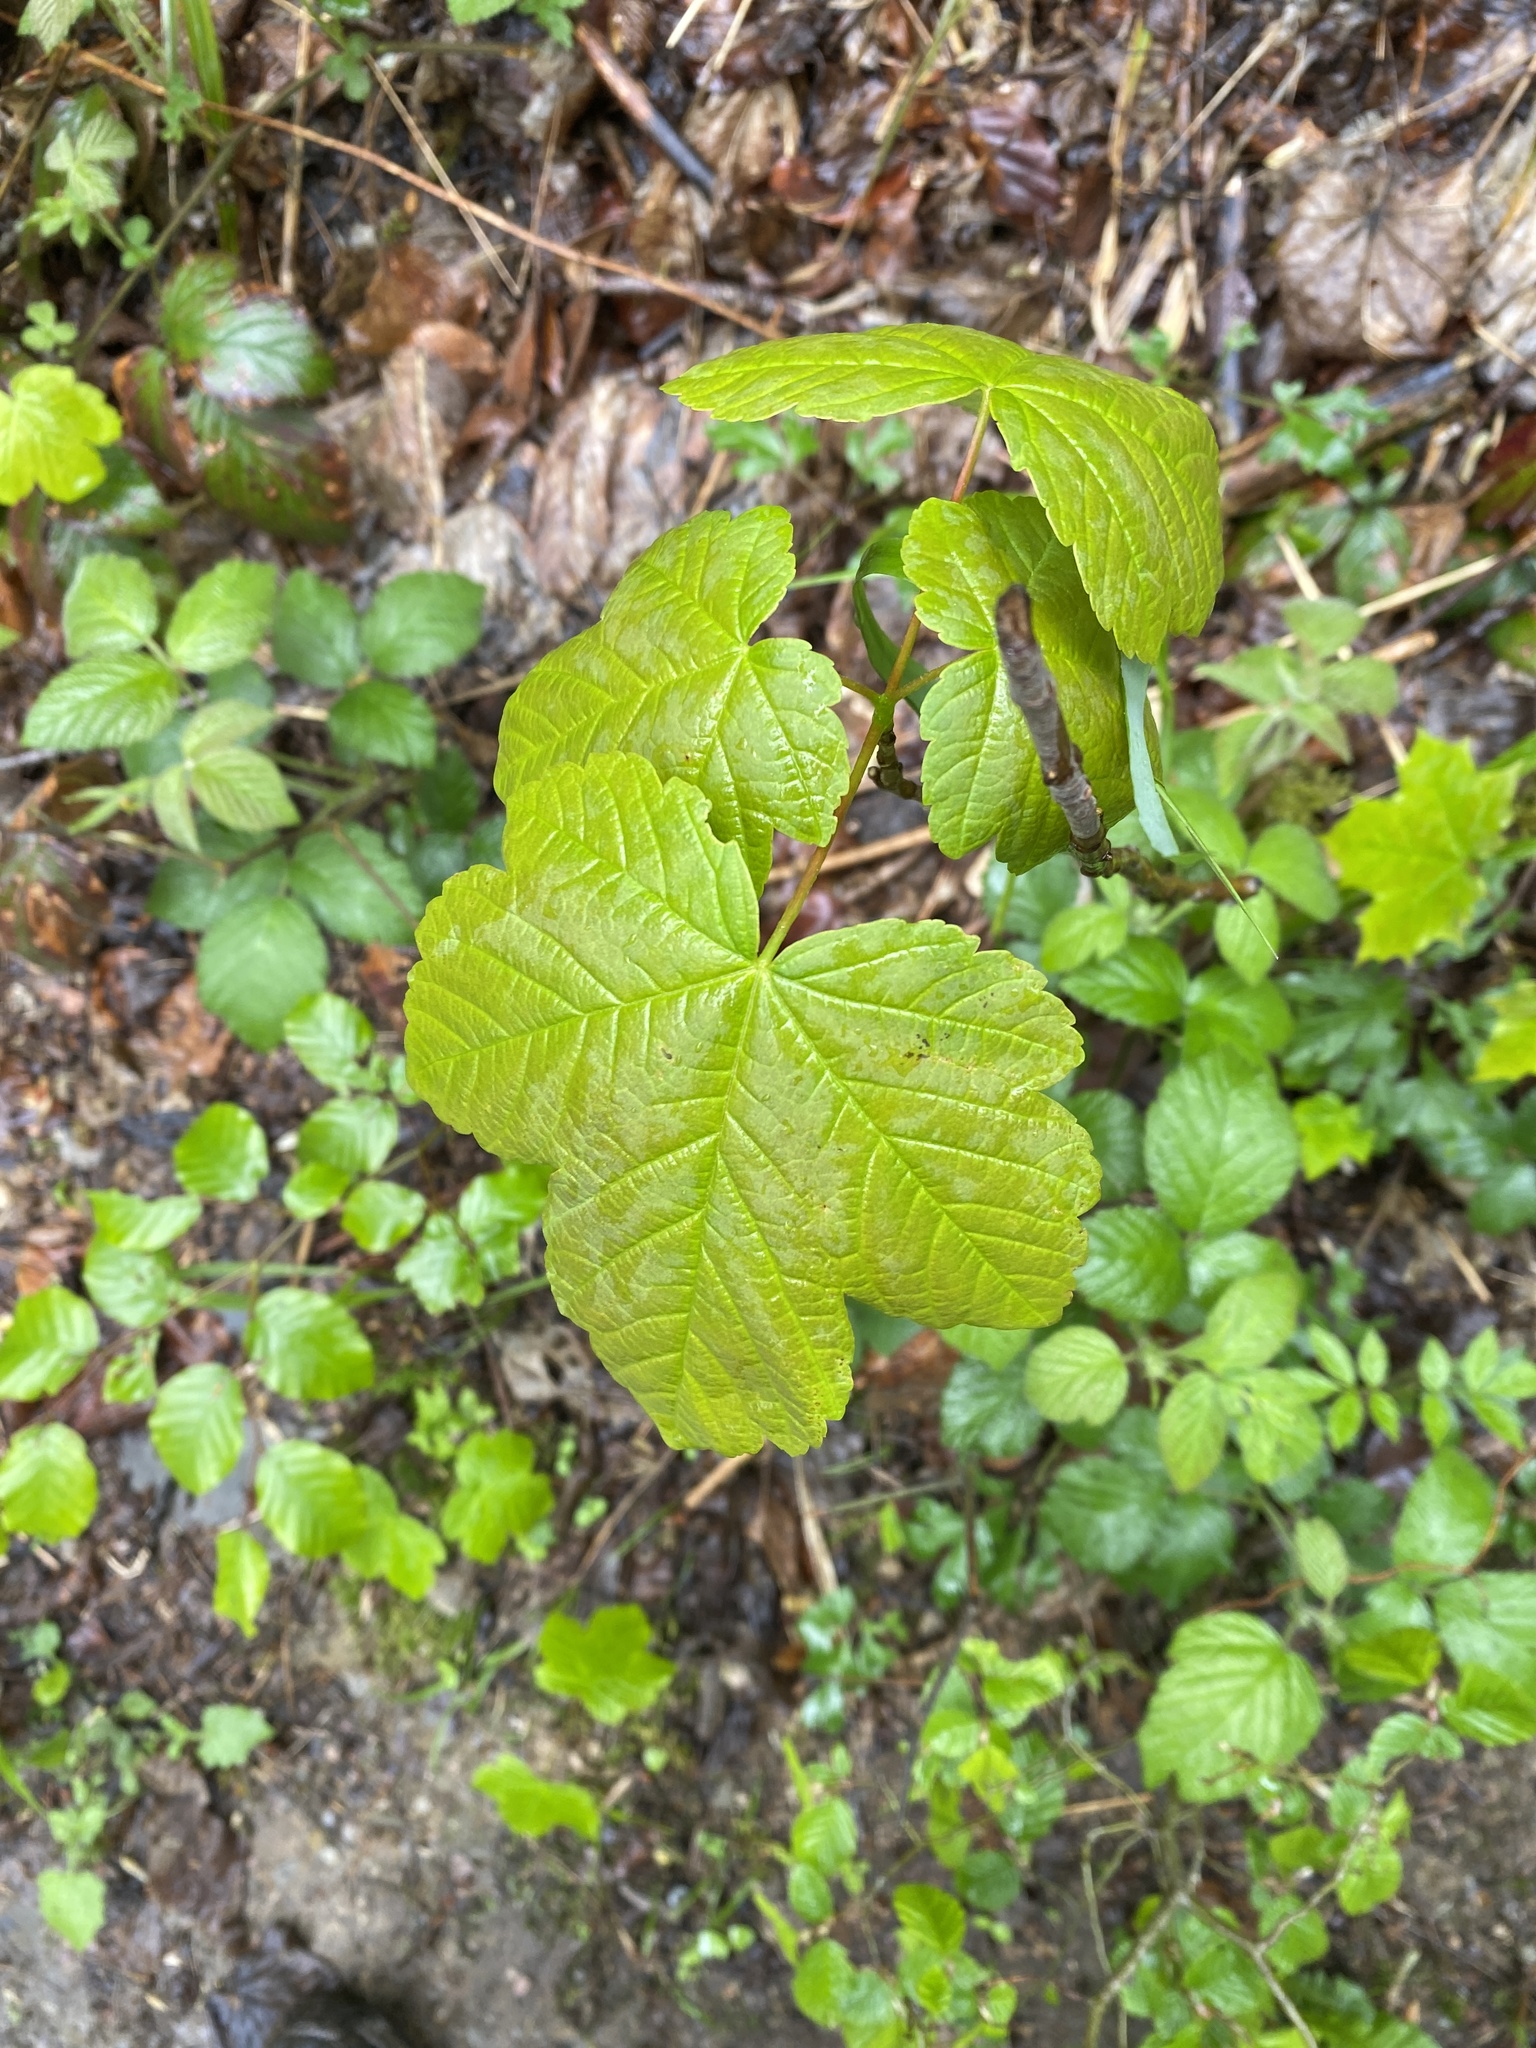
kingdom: Plantae
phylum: Tracheophyta
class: Magnoliopsida
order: Sapindales
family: Sapindaceae
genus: Acer
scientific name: Acer pseudoplatanus
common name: Sycamore
